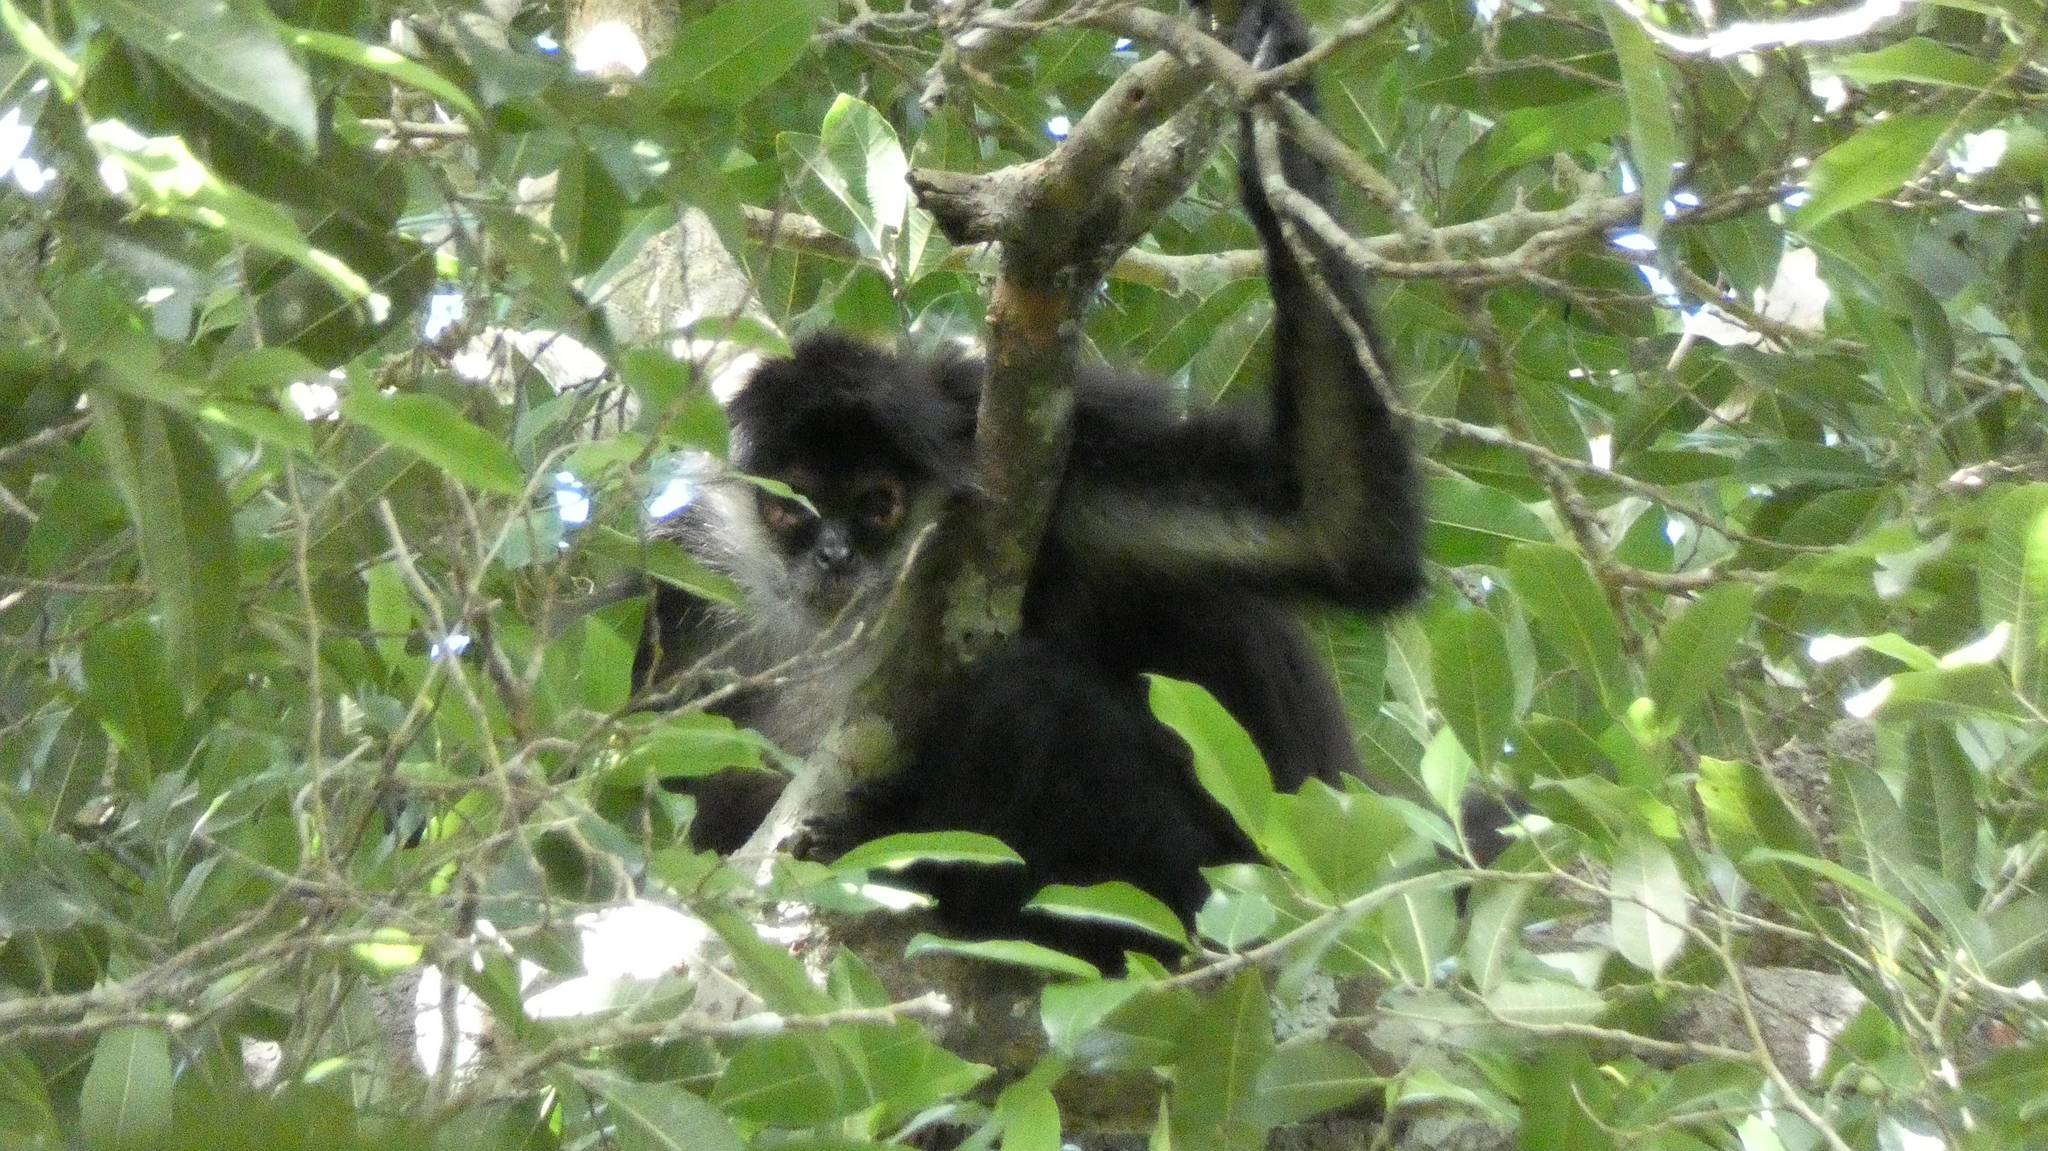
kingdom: Animalia
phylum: Chordata
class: Mammalia
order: Primates
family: Atelidae
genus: Ateles
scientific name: Ateles geoffroyi
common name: Black-handed spider monkey
